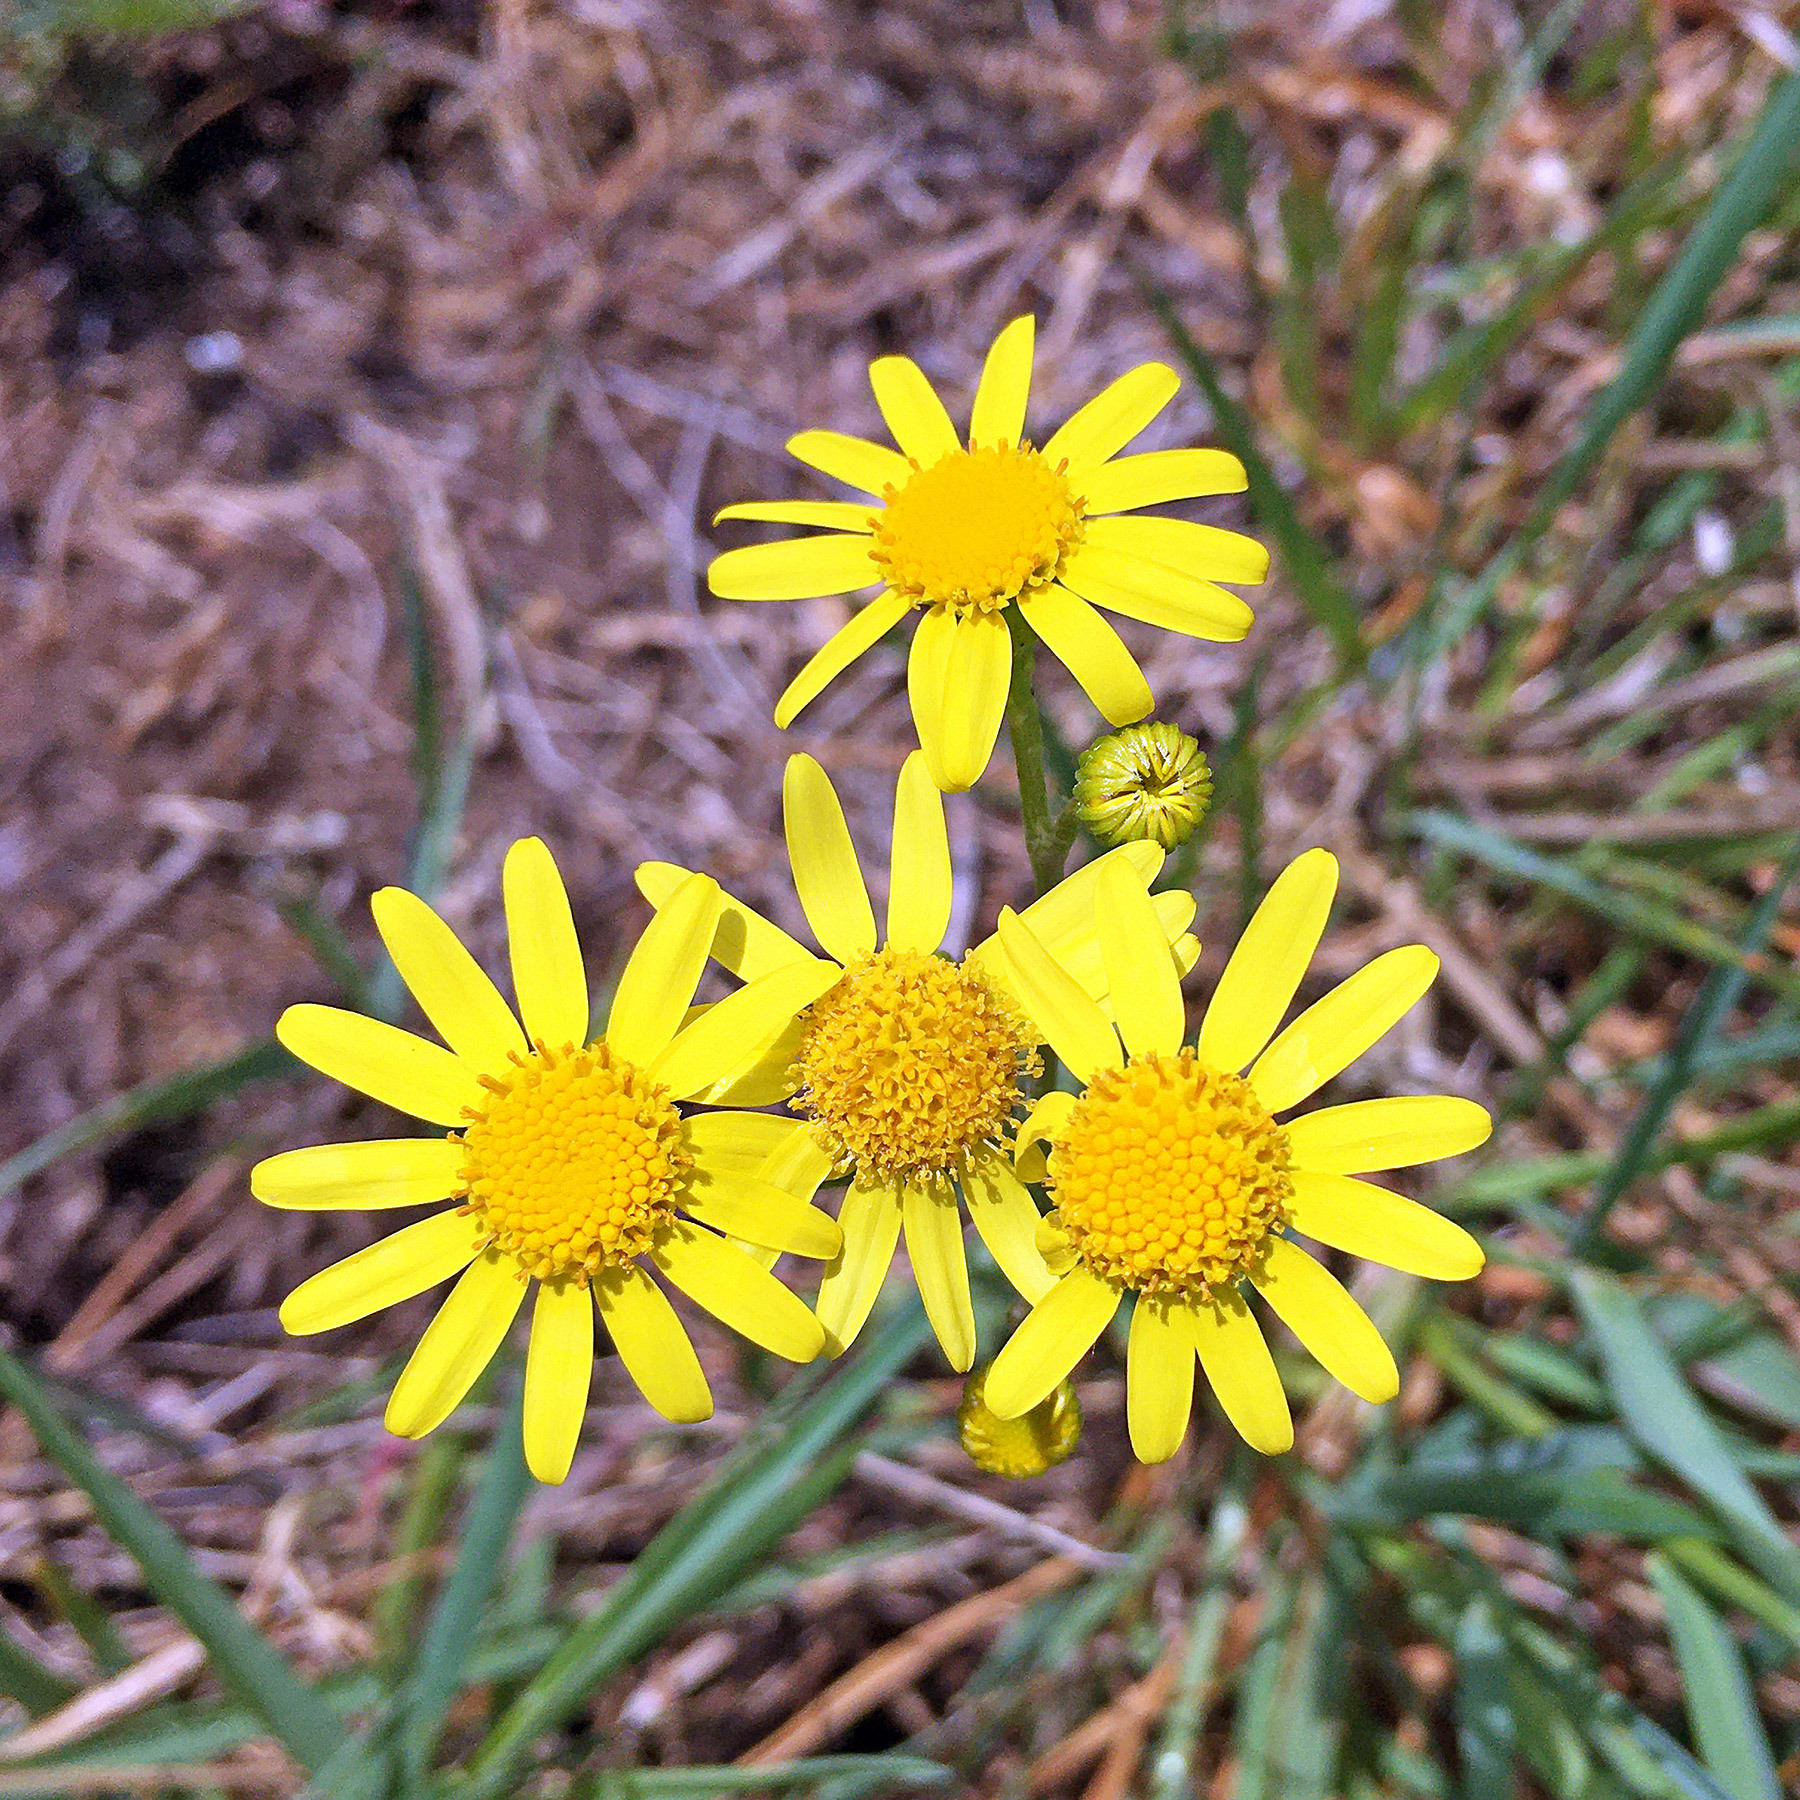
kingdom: Plantae
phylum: Tracheophyta
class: Magnoliopsida
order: Asterales
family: Asteraceae
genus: Senecio
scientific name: Senecio vernalis
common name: Eastern groundsel
